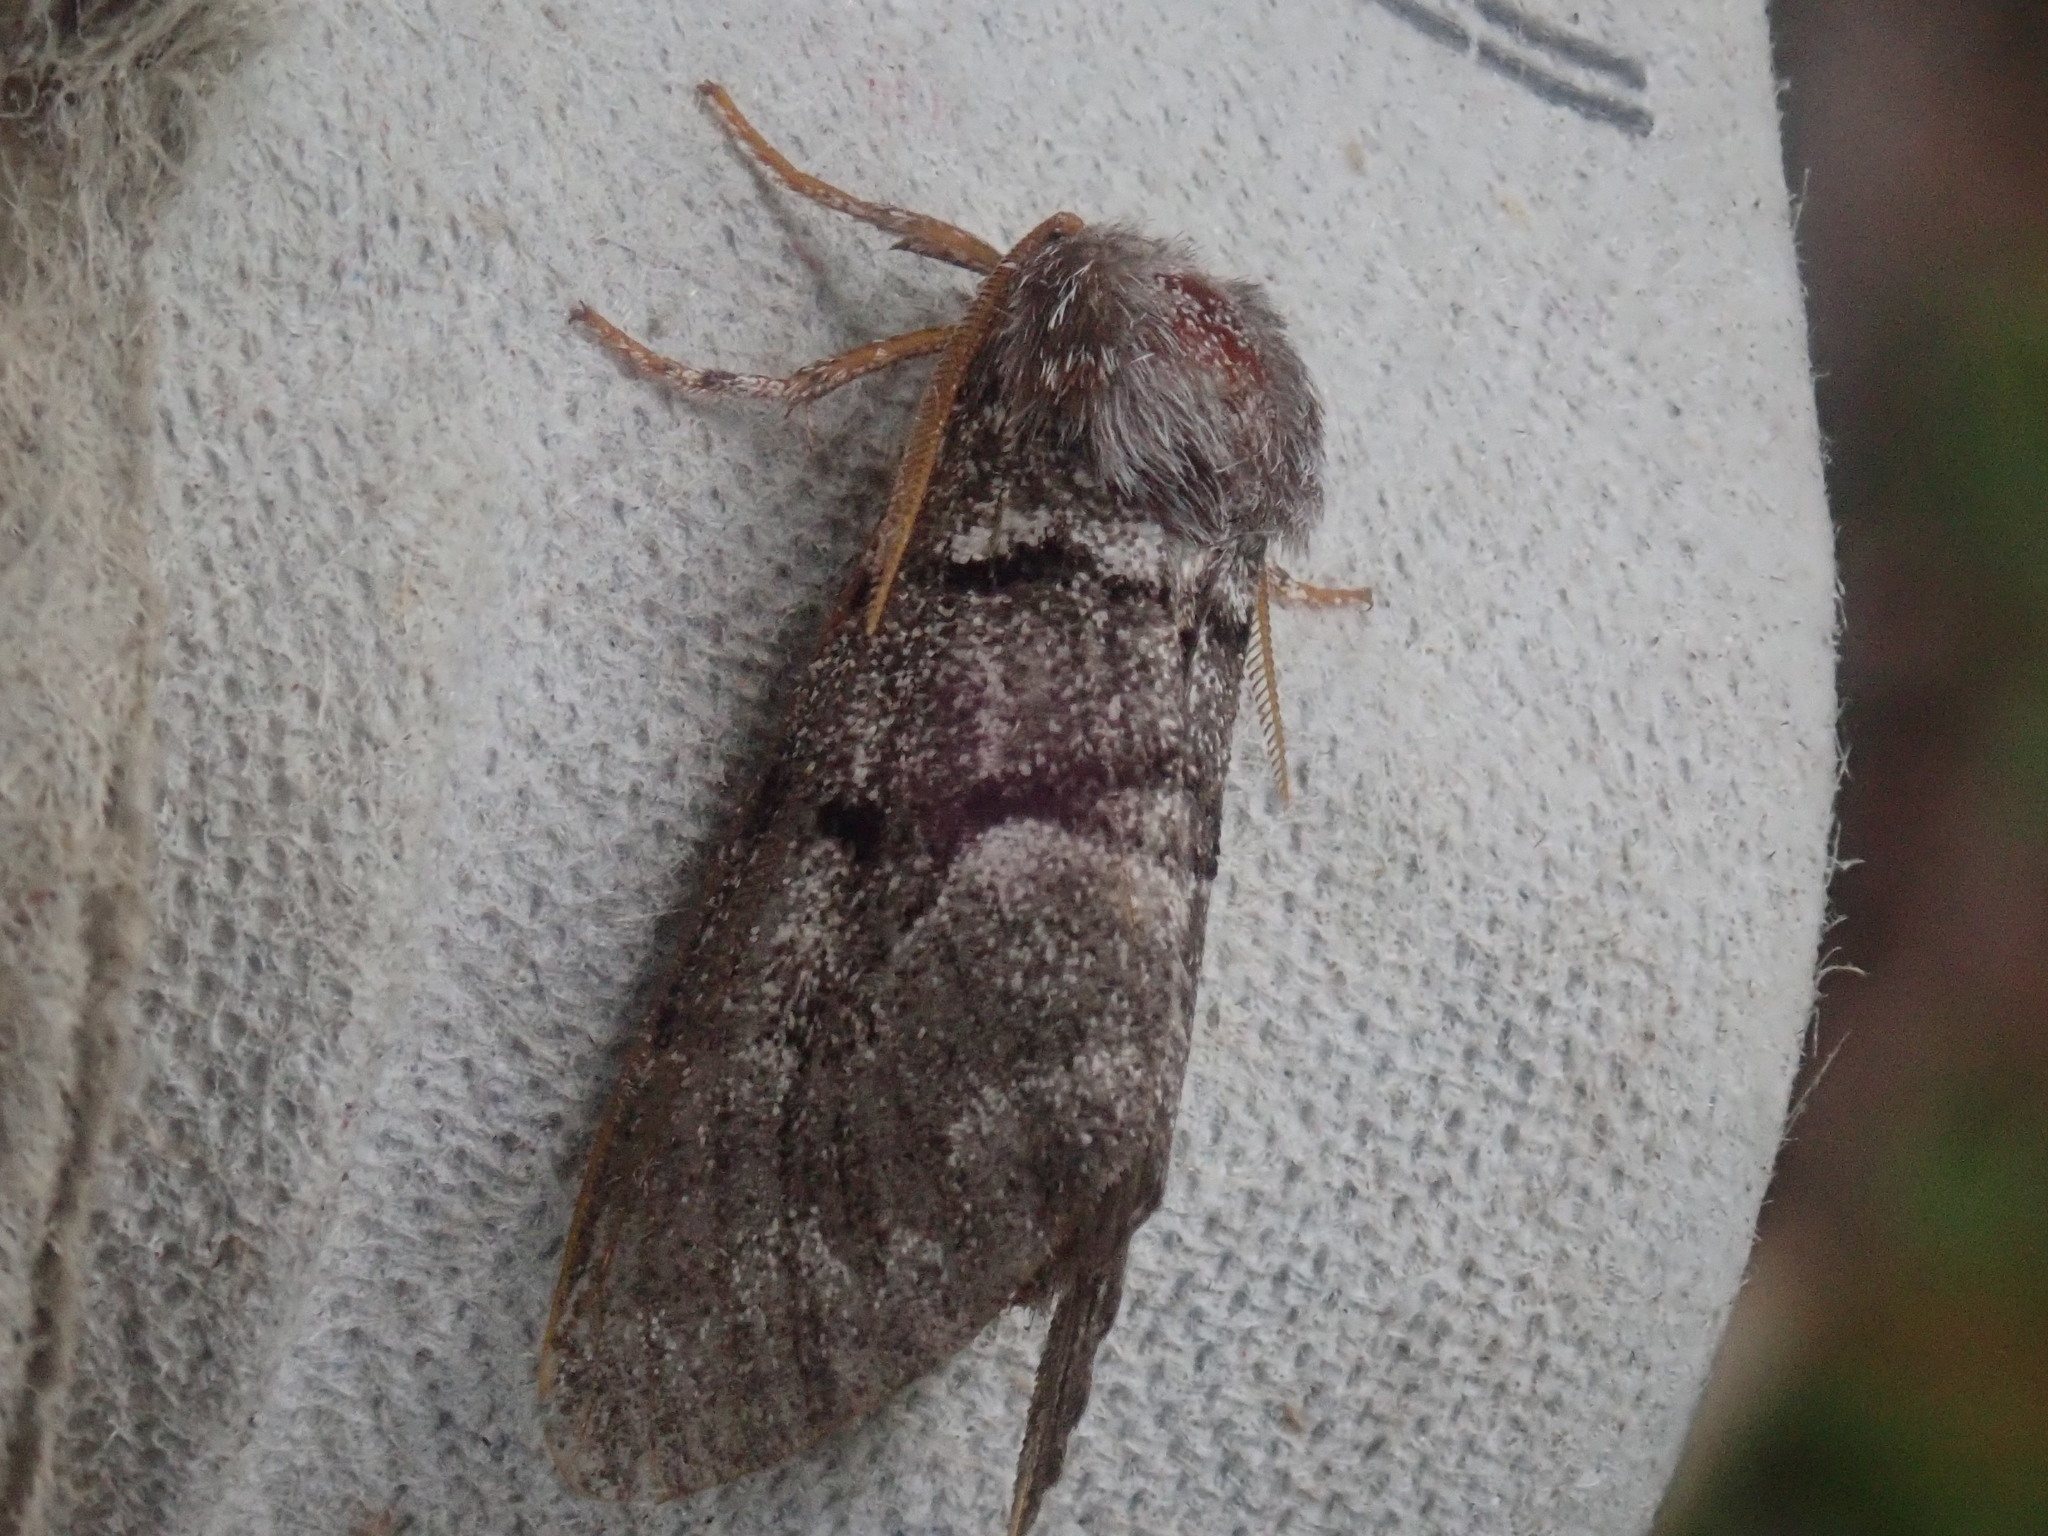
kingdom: Animalia
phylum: Arthropoda
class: Insecta
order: Lepidoptera
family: Noctuidae
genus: Panthea
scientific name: Panthea furcilla
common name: Eastern panthea moth
